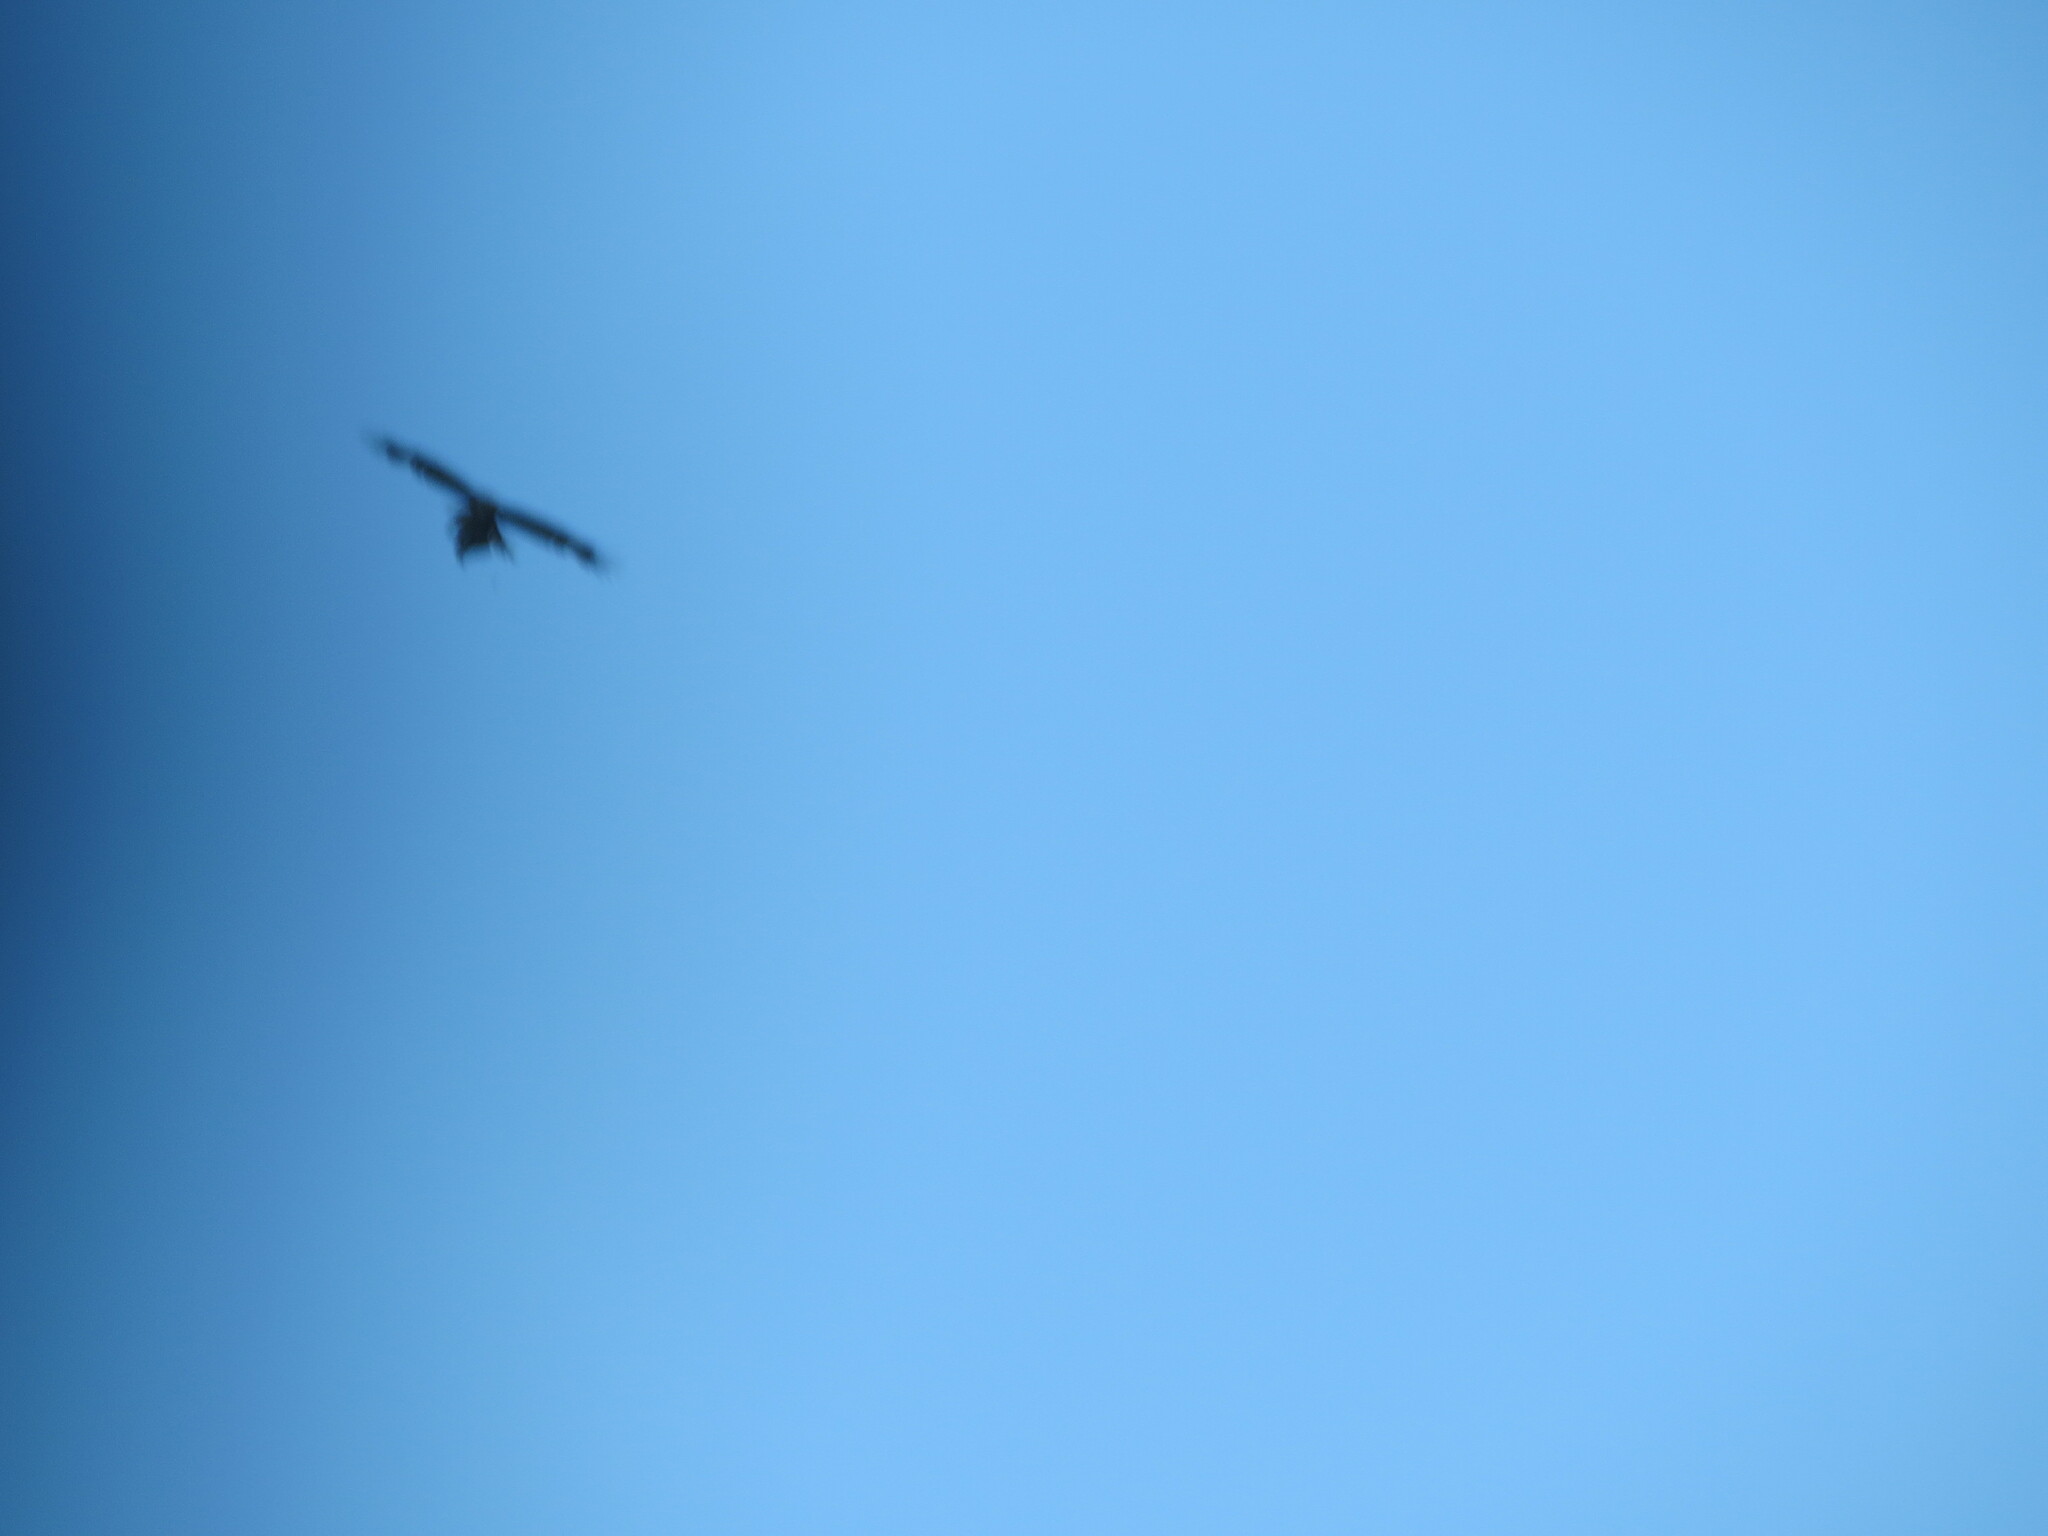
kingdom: Animalia
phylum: Chordata
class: Aves
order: Accipitriformes
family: Accipitridae
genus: Circus
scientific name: Circus aeruginosus
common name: Western marsh harrier
